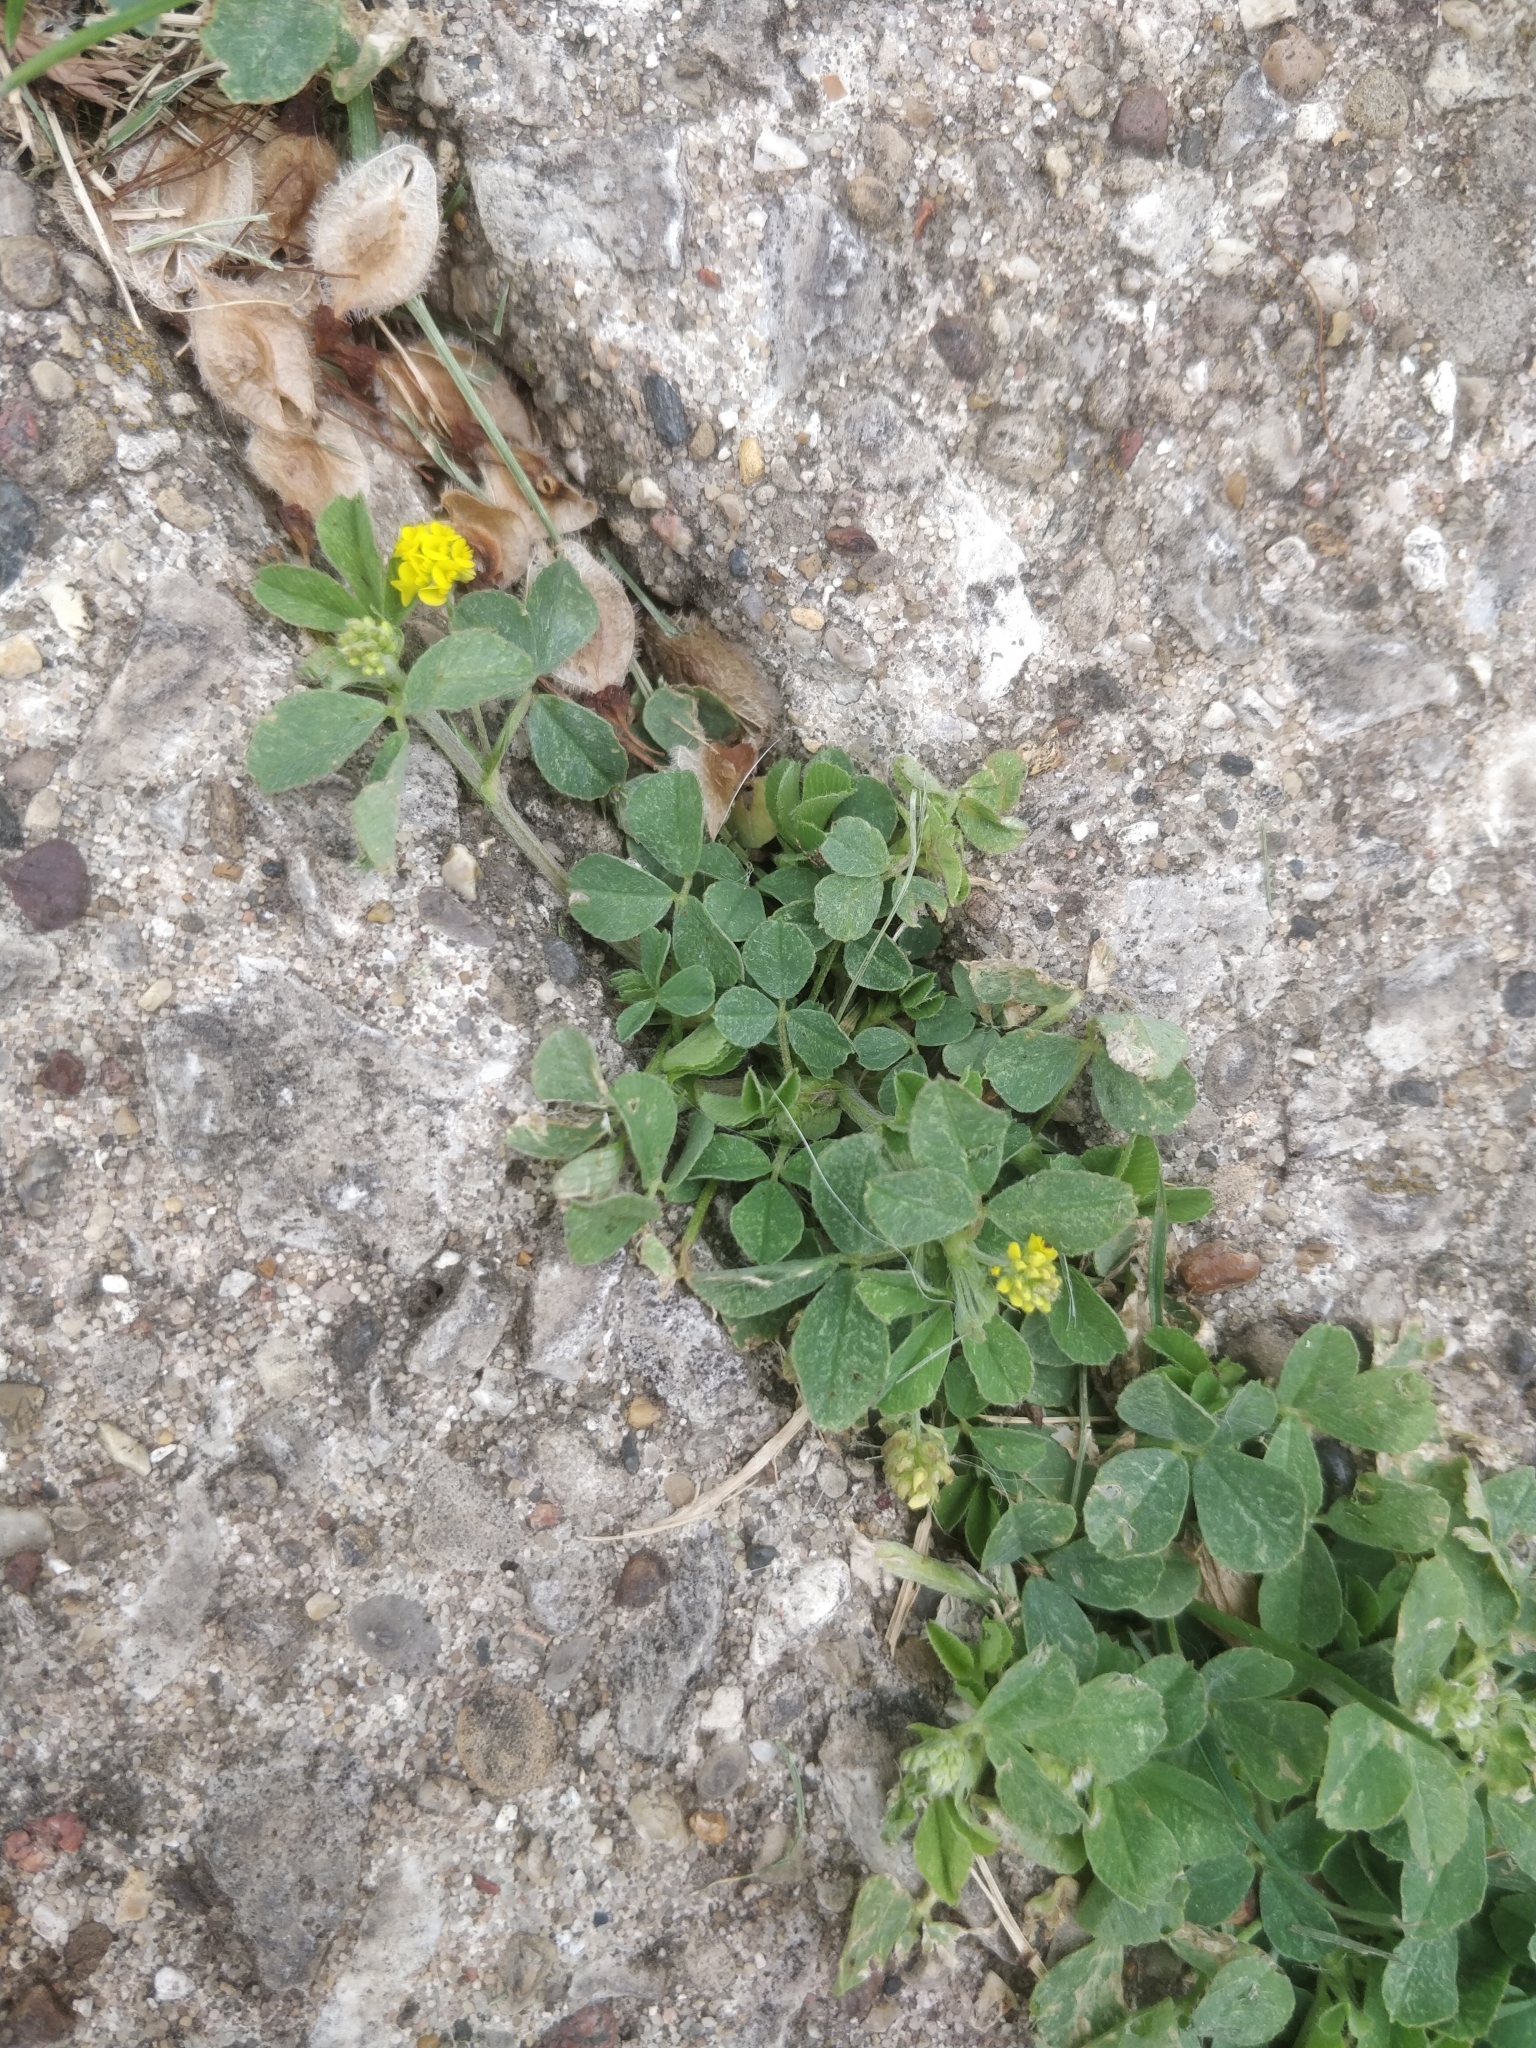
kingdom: Plantae
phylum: Tracheophyta
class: Magnoliopsida
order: Fabales
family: Fabaceae
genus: Medicago
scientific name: Medicago lupulina
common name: Black medick
